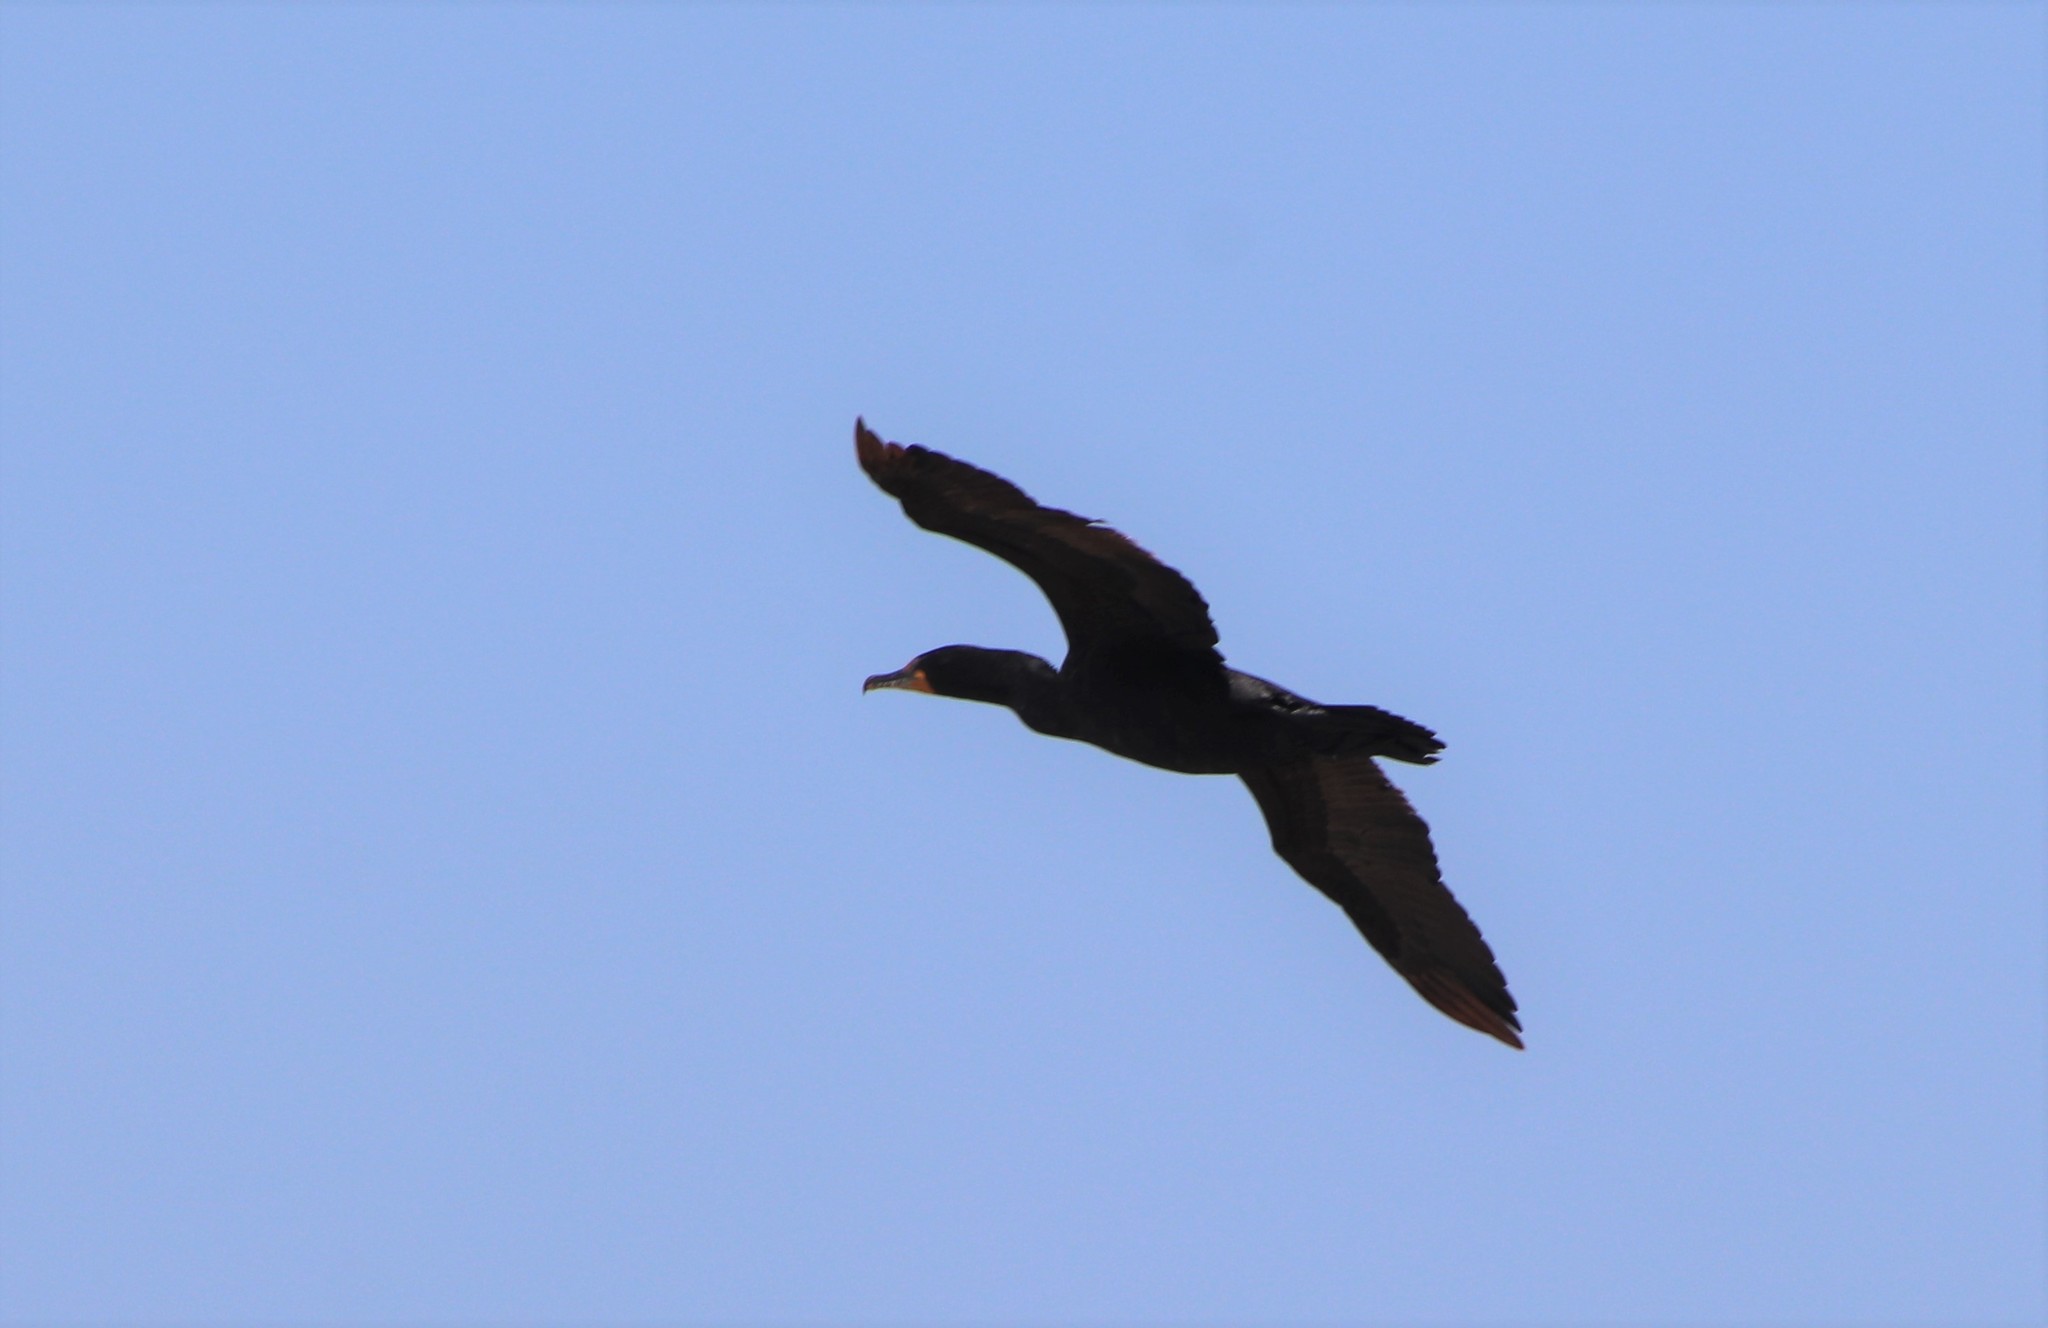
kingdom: Animalia
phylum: Chordata
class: Aves
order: Suliformes
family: Phalacrocoracidae
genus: Phalacrocorax
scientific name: Phalacrocorax auritus
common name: Double-crested cormorant
